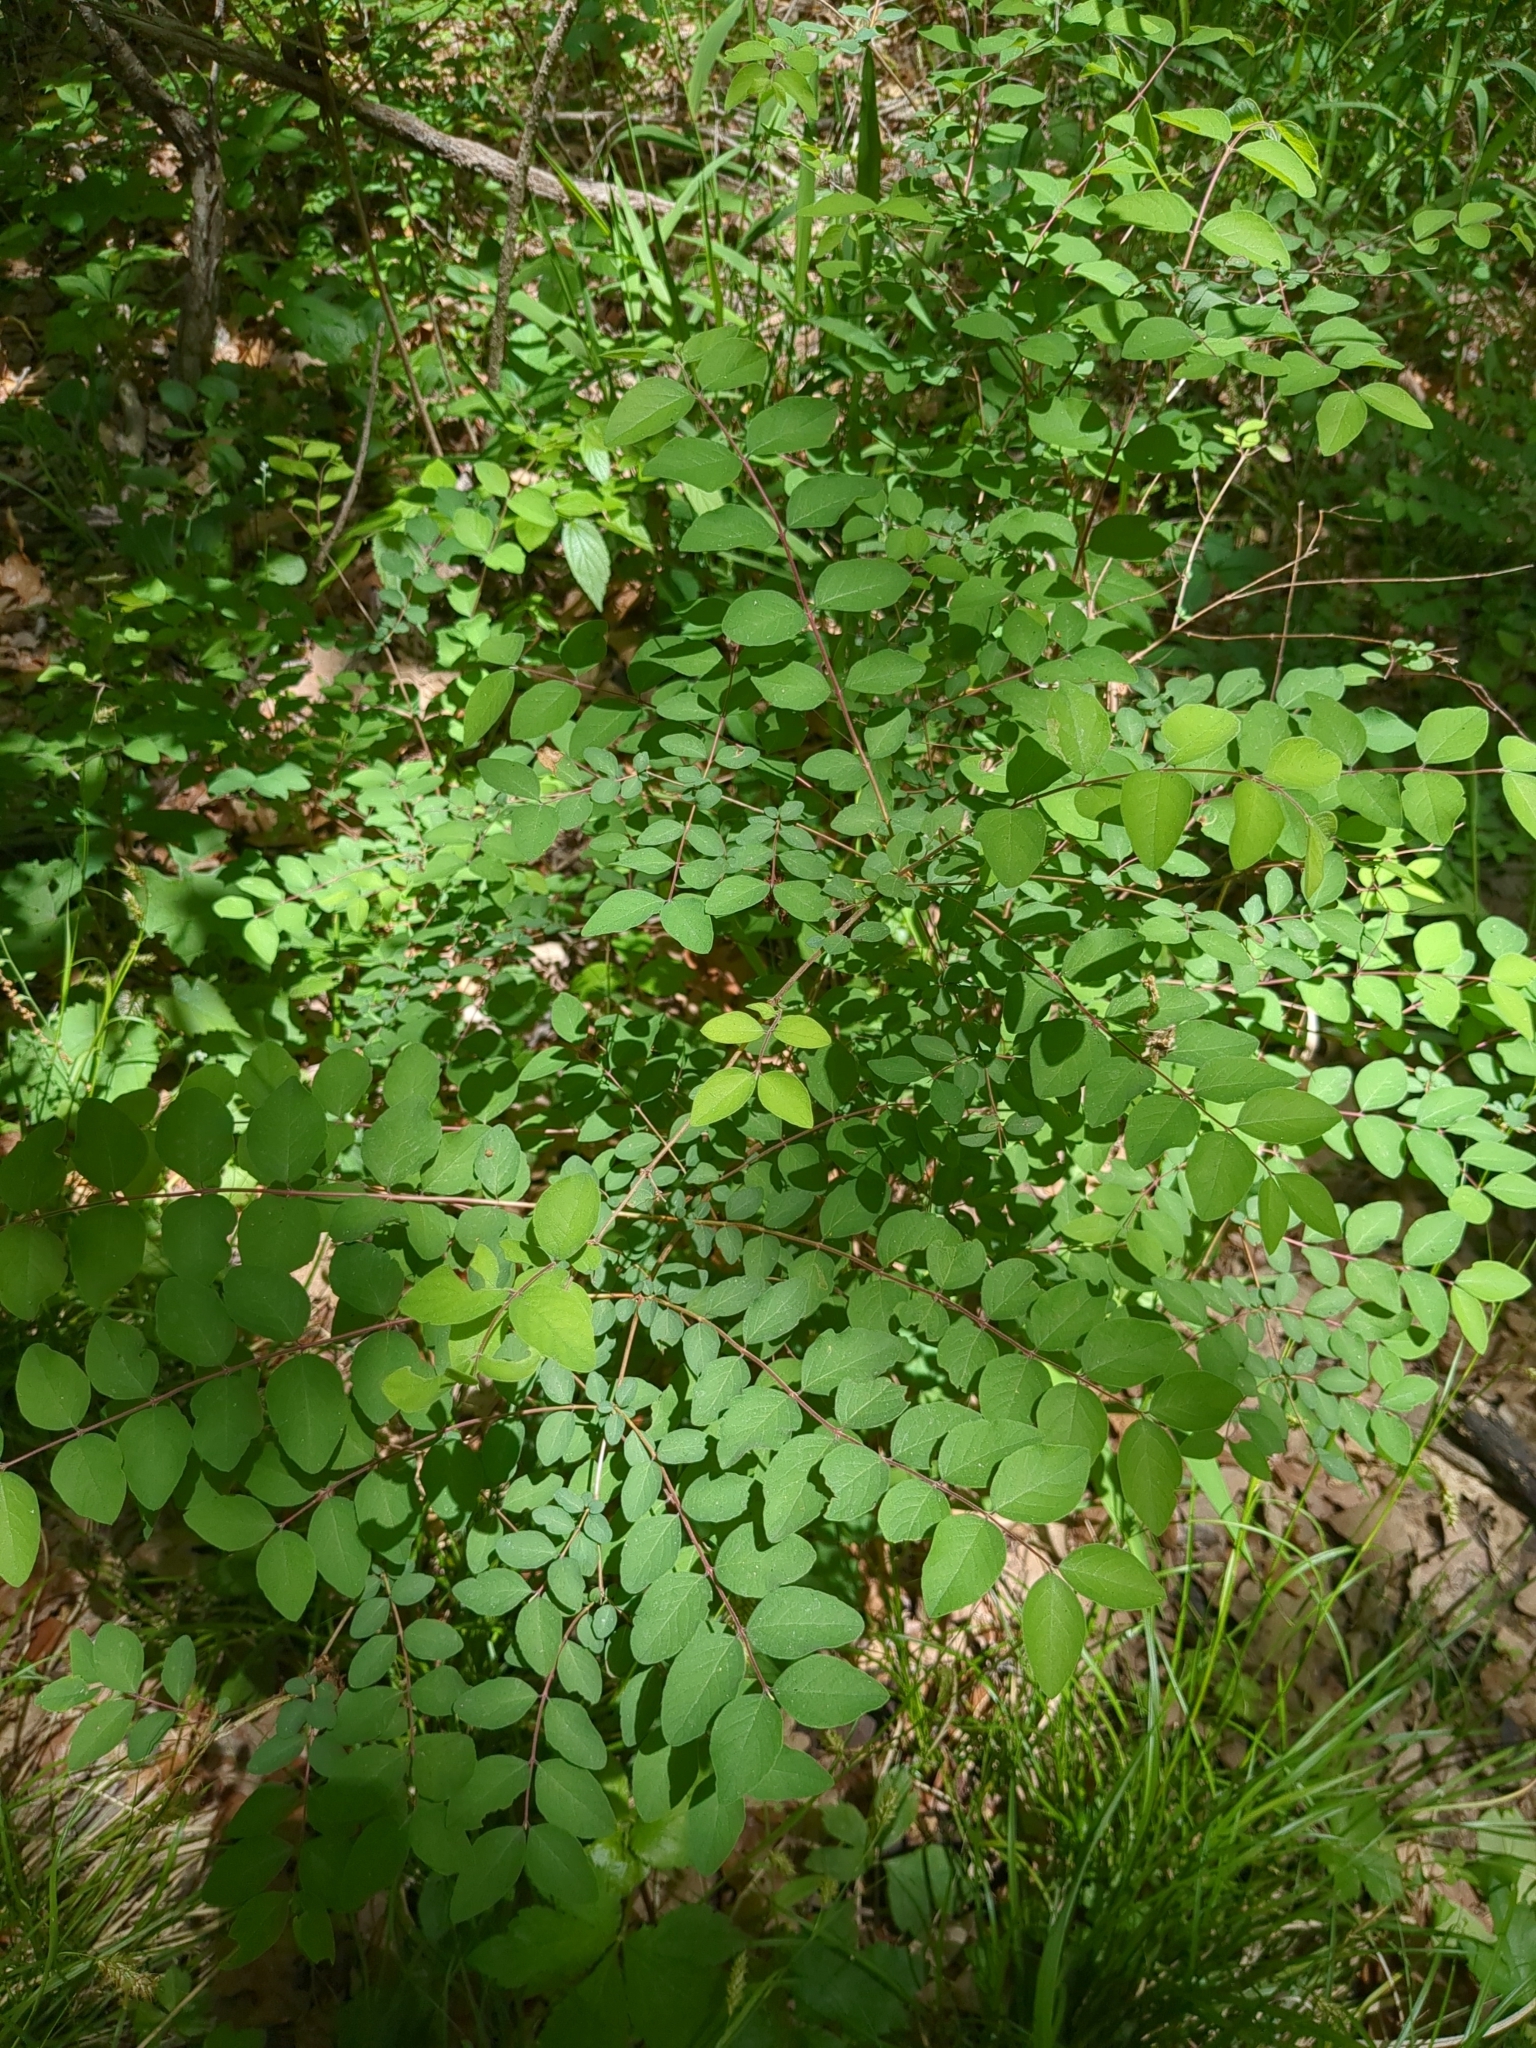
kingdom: Plantae
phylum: Tracheophyta
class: Magnoliopsida
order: Dipsacales
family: Caprifoliaceae
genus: Symphoricarpos
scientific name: Symphoricarpos orbiculatus
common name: Coralberry
